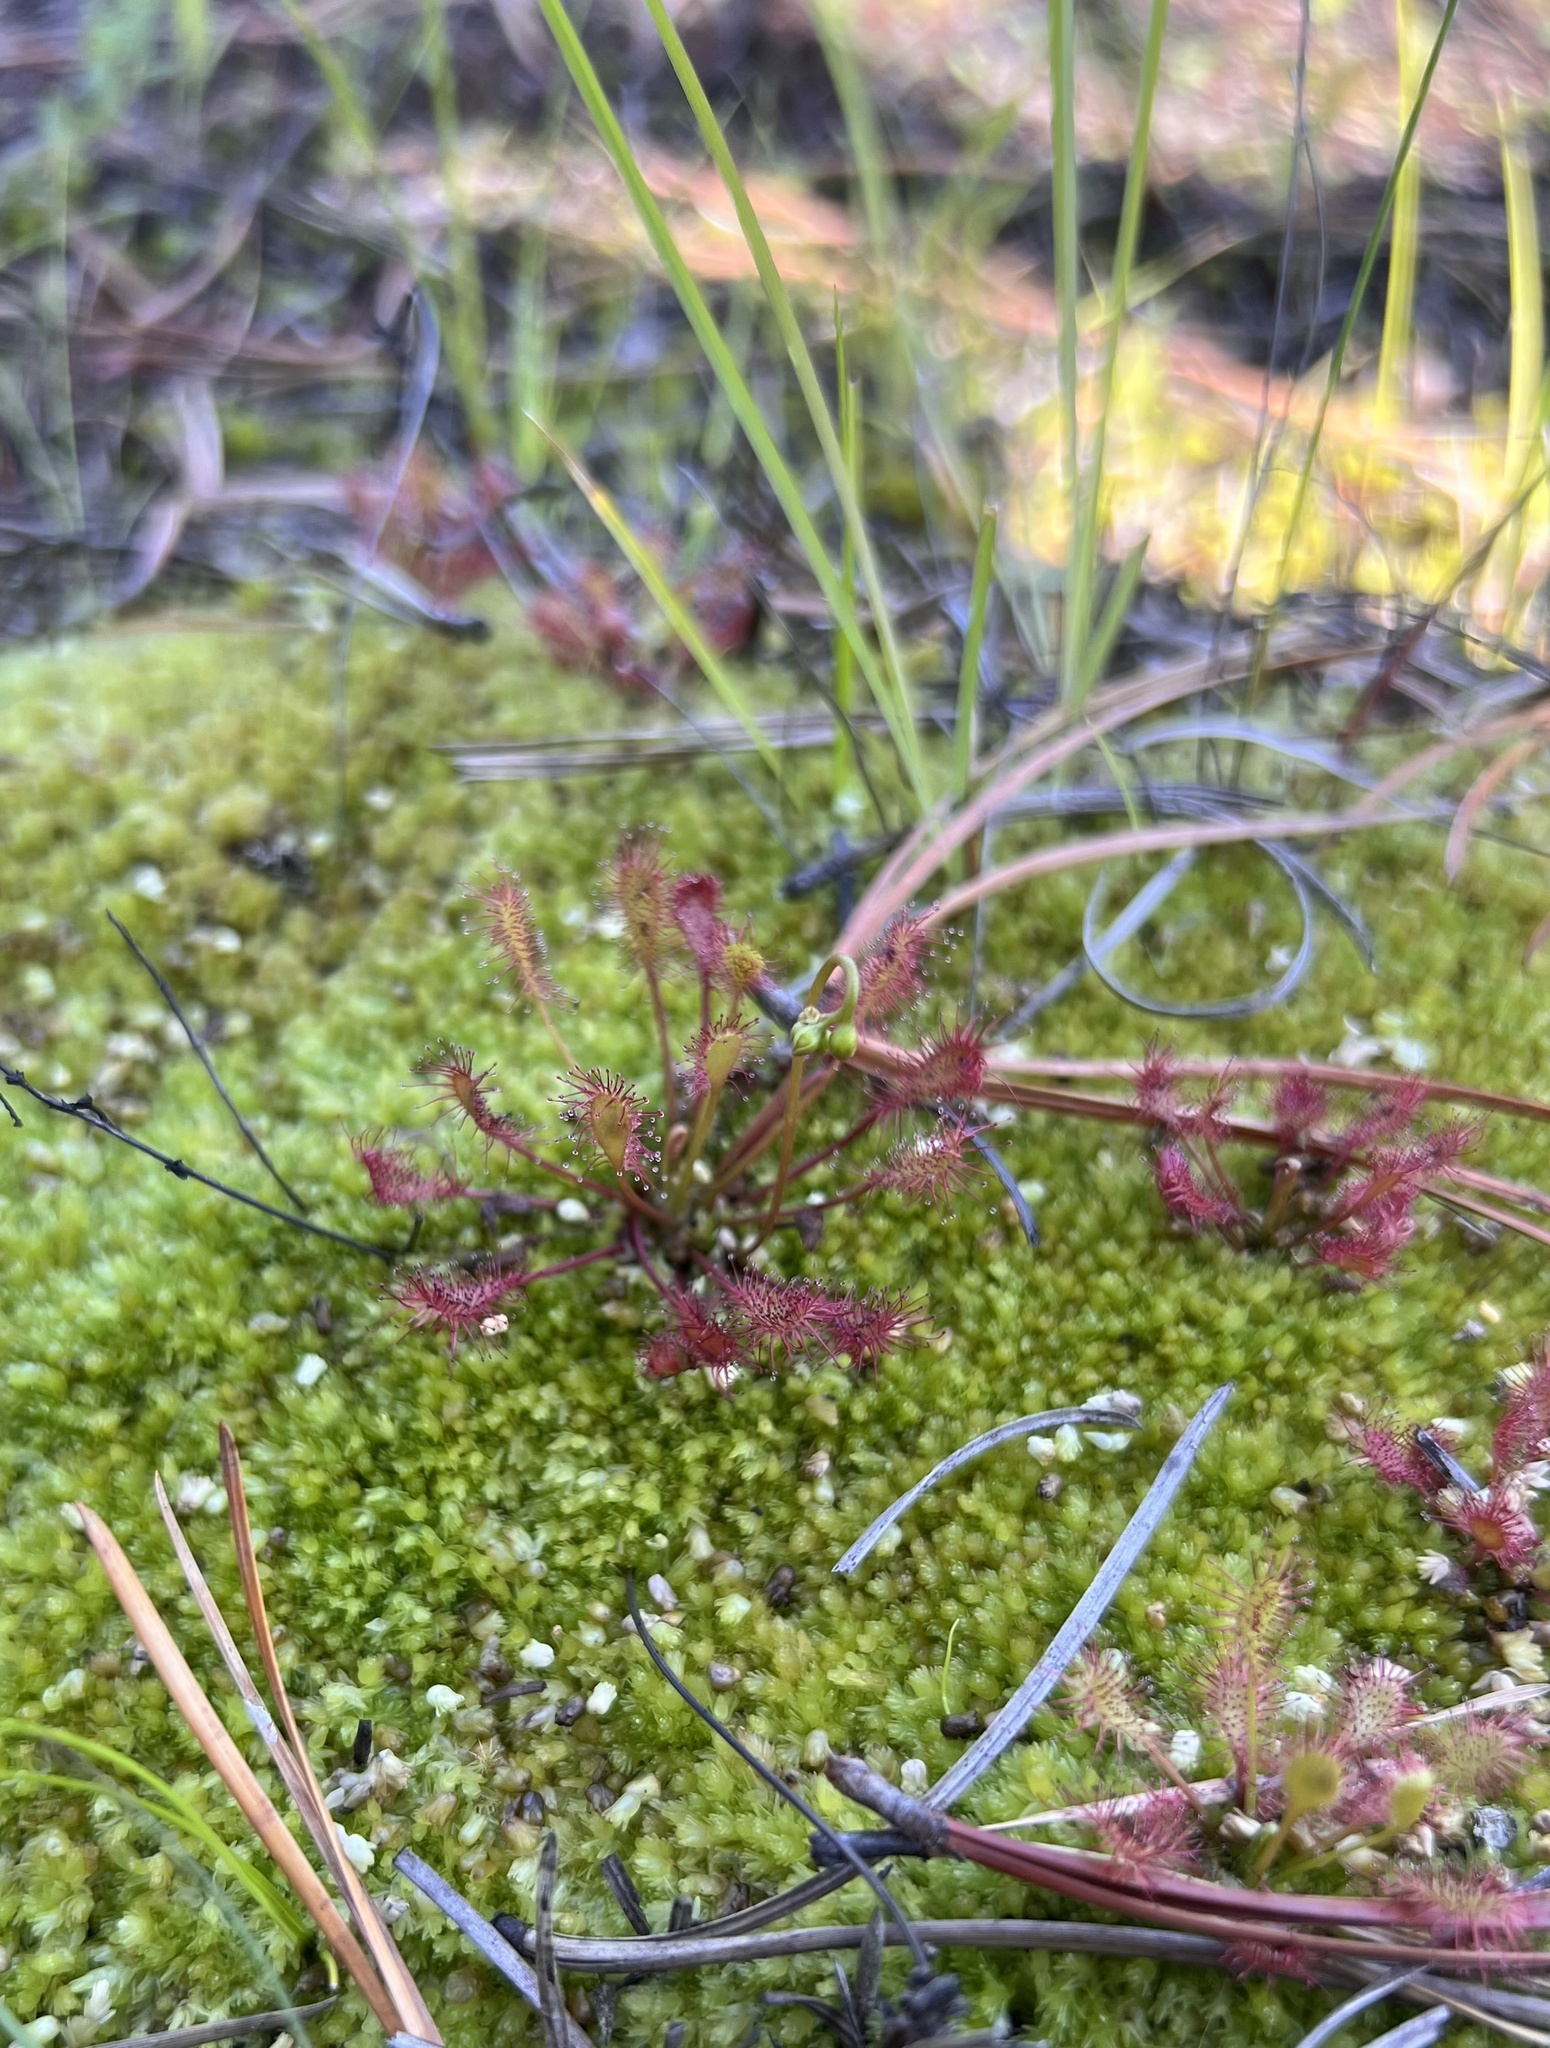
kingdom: Plantae
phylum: Tracheophyta
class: Magnoliopsida
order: Caryophyllales
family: Droseraceae
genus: Drosera
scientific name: Drosera intermedia
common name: Oblong-leaved sundew
